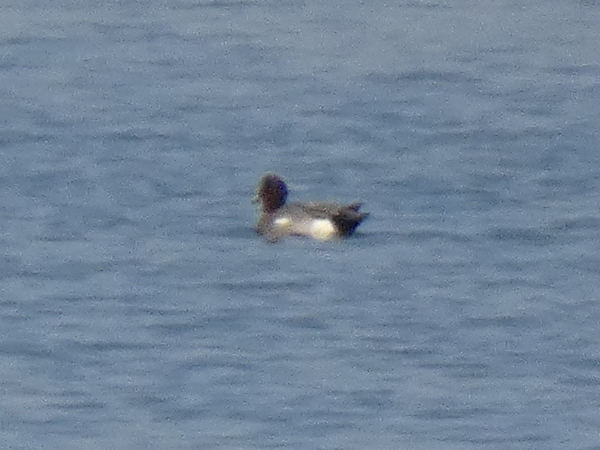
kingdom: Animalia
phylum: Chordata
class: Aves
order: Anseriformes
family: Anatidae
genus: Mareca
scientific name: Mareca penelope
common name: Eurasian wigeon
